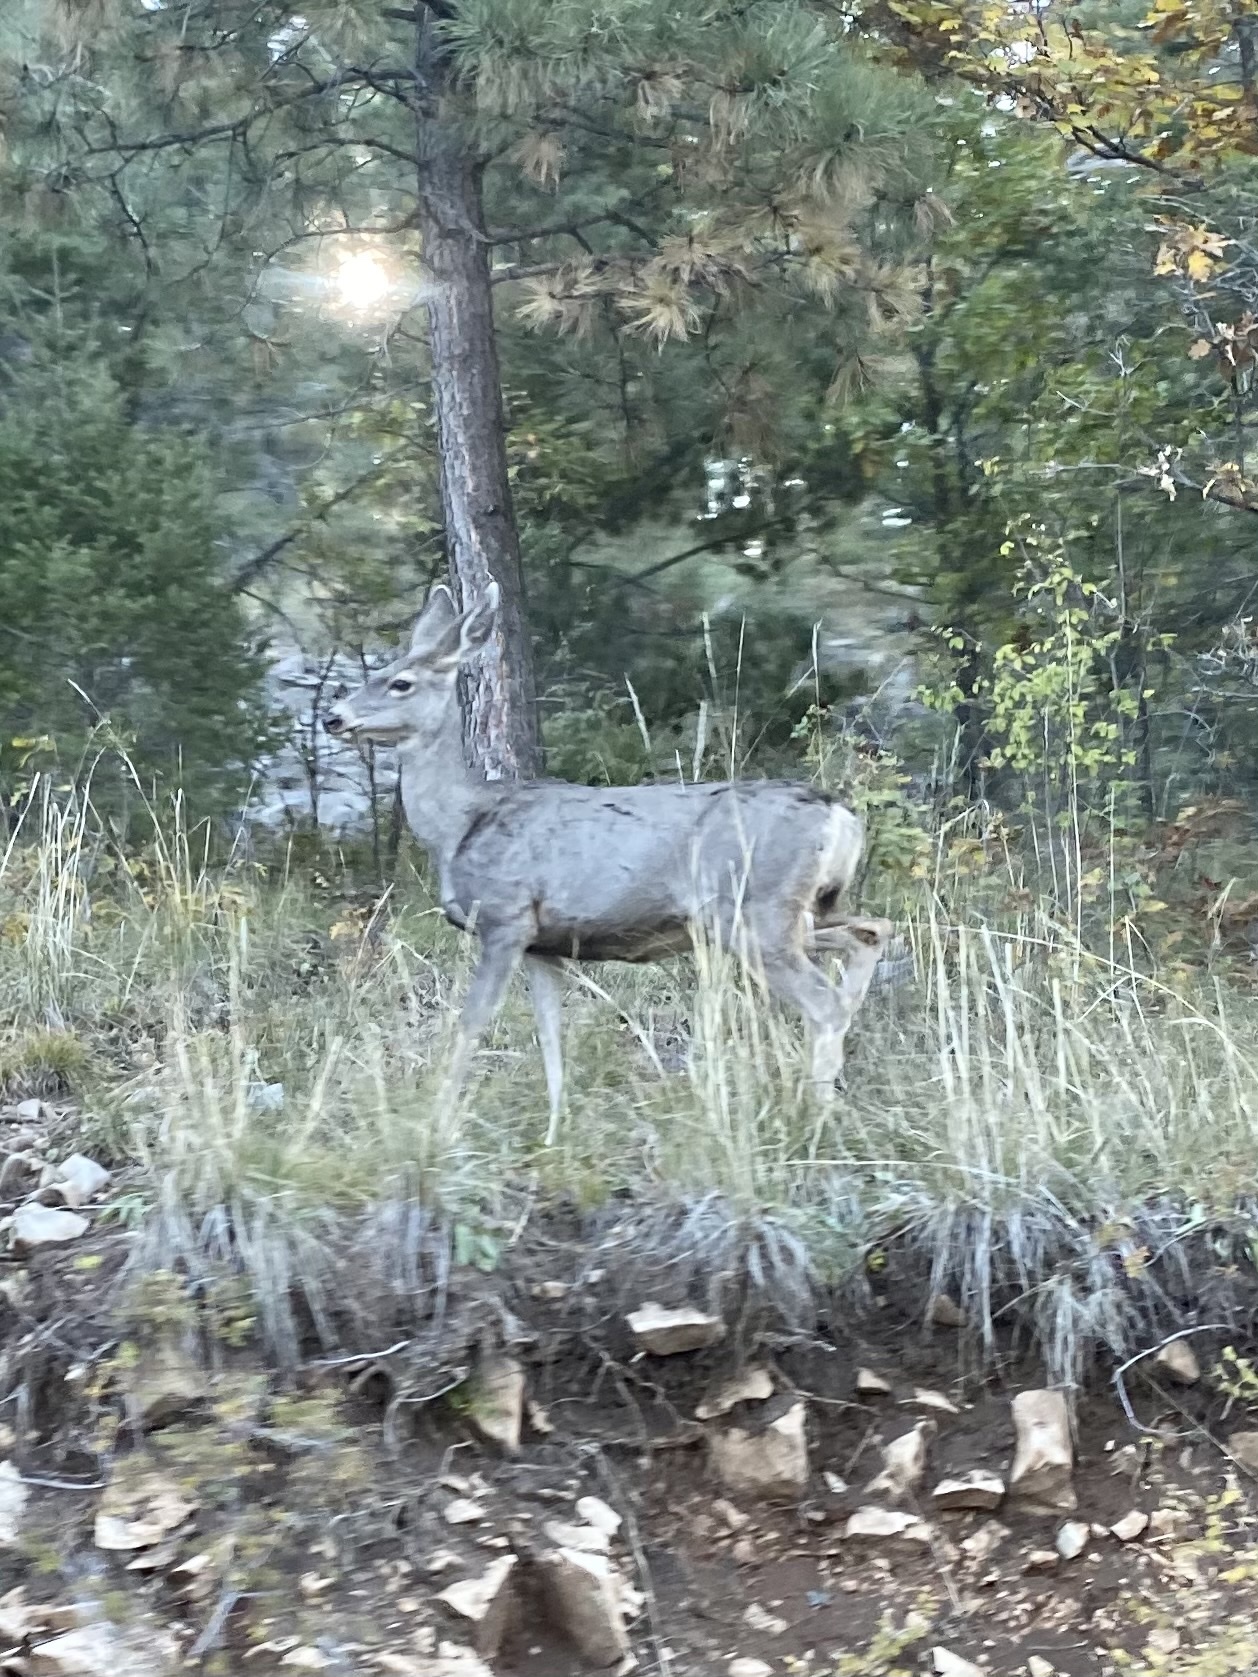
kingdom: Animalia
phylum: Chordata
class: Mammalia
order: Artiodactyla
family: Cervidae
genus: Odocoileus
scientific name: Odocoileus hemionus
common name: Mule deer
